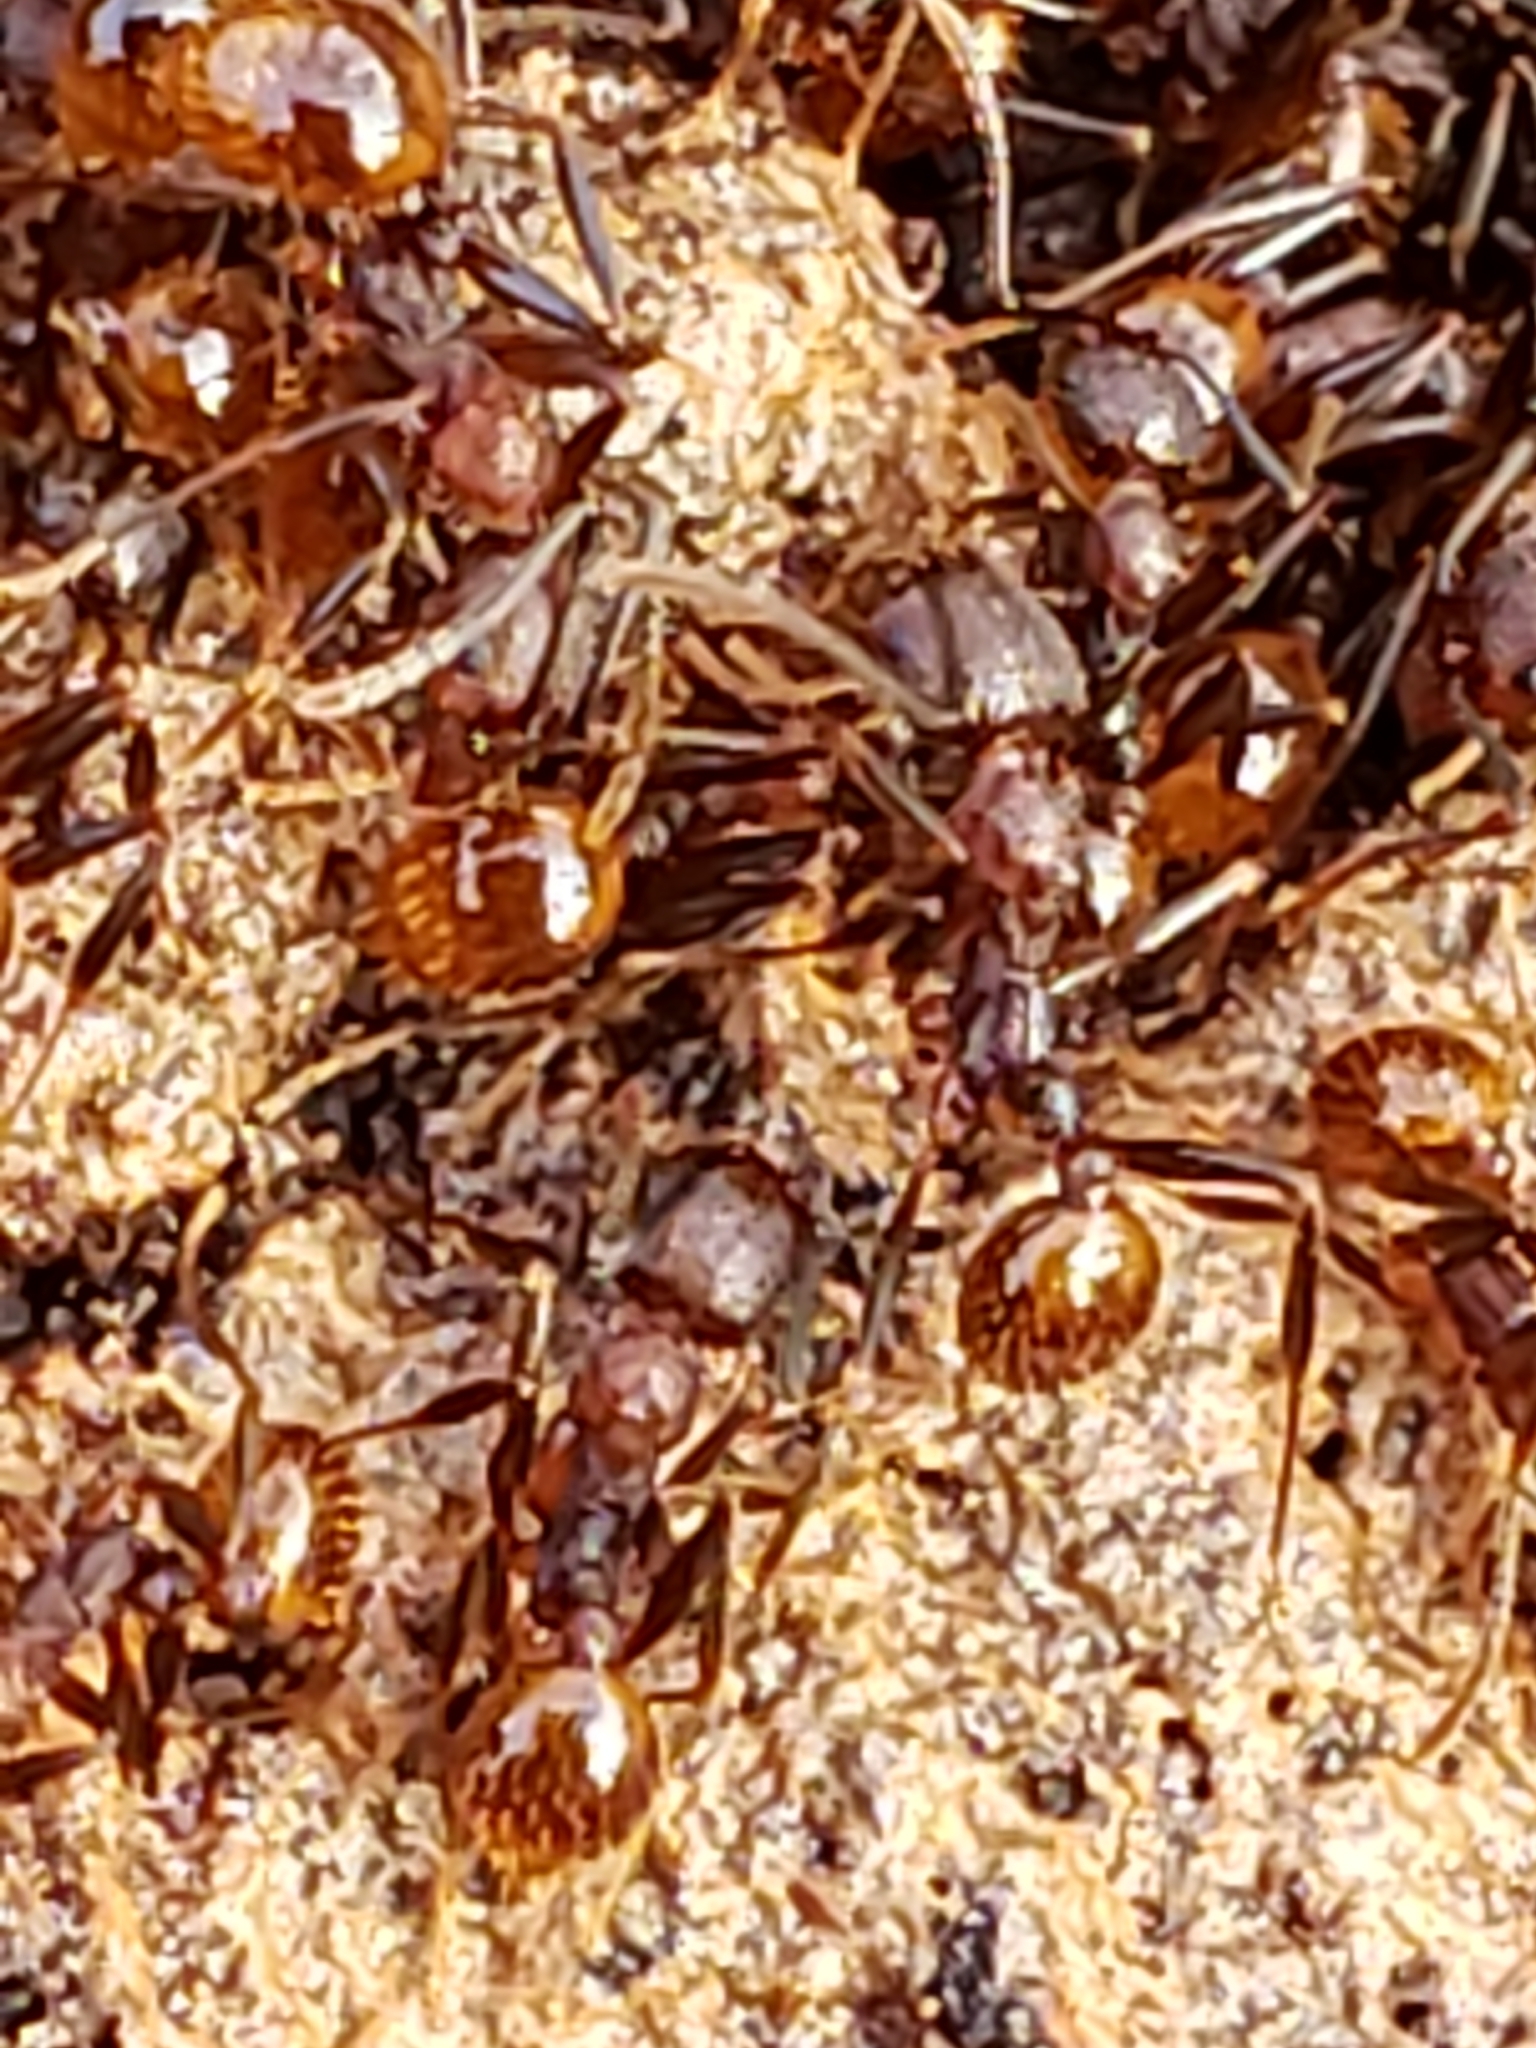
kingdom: Animalia
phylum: Arthropoda
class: Insecta
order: Hymenoptera
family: Formicidae
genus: Aphaenogaster
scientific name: Aphaenogaster fulva
